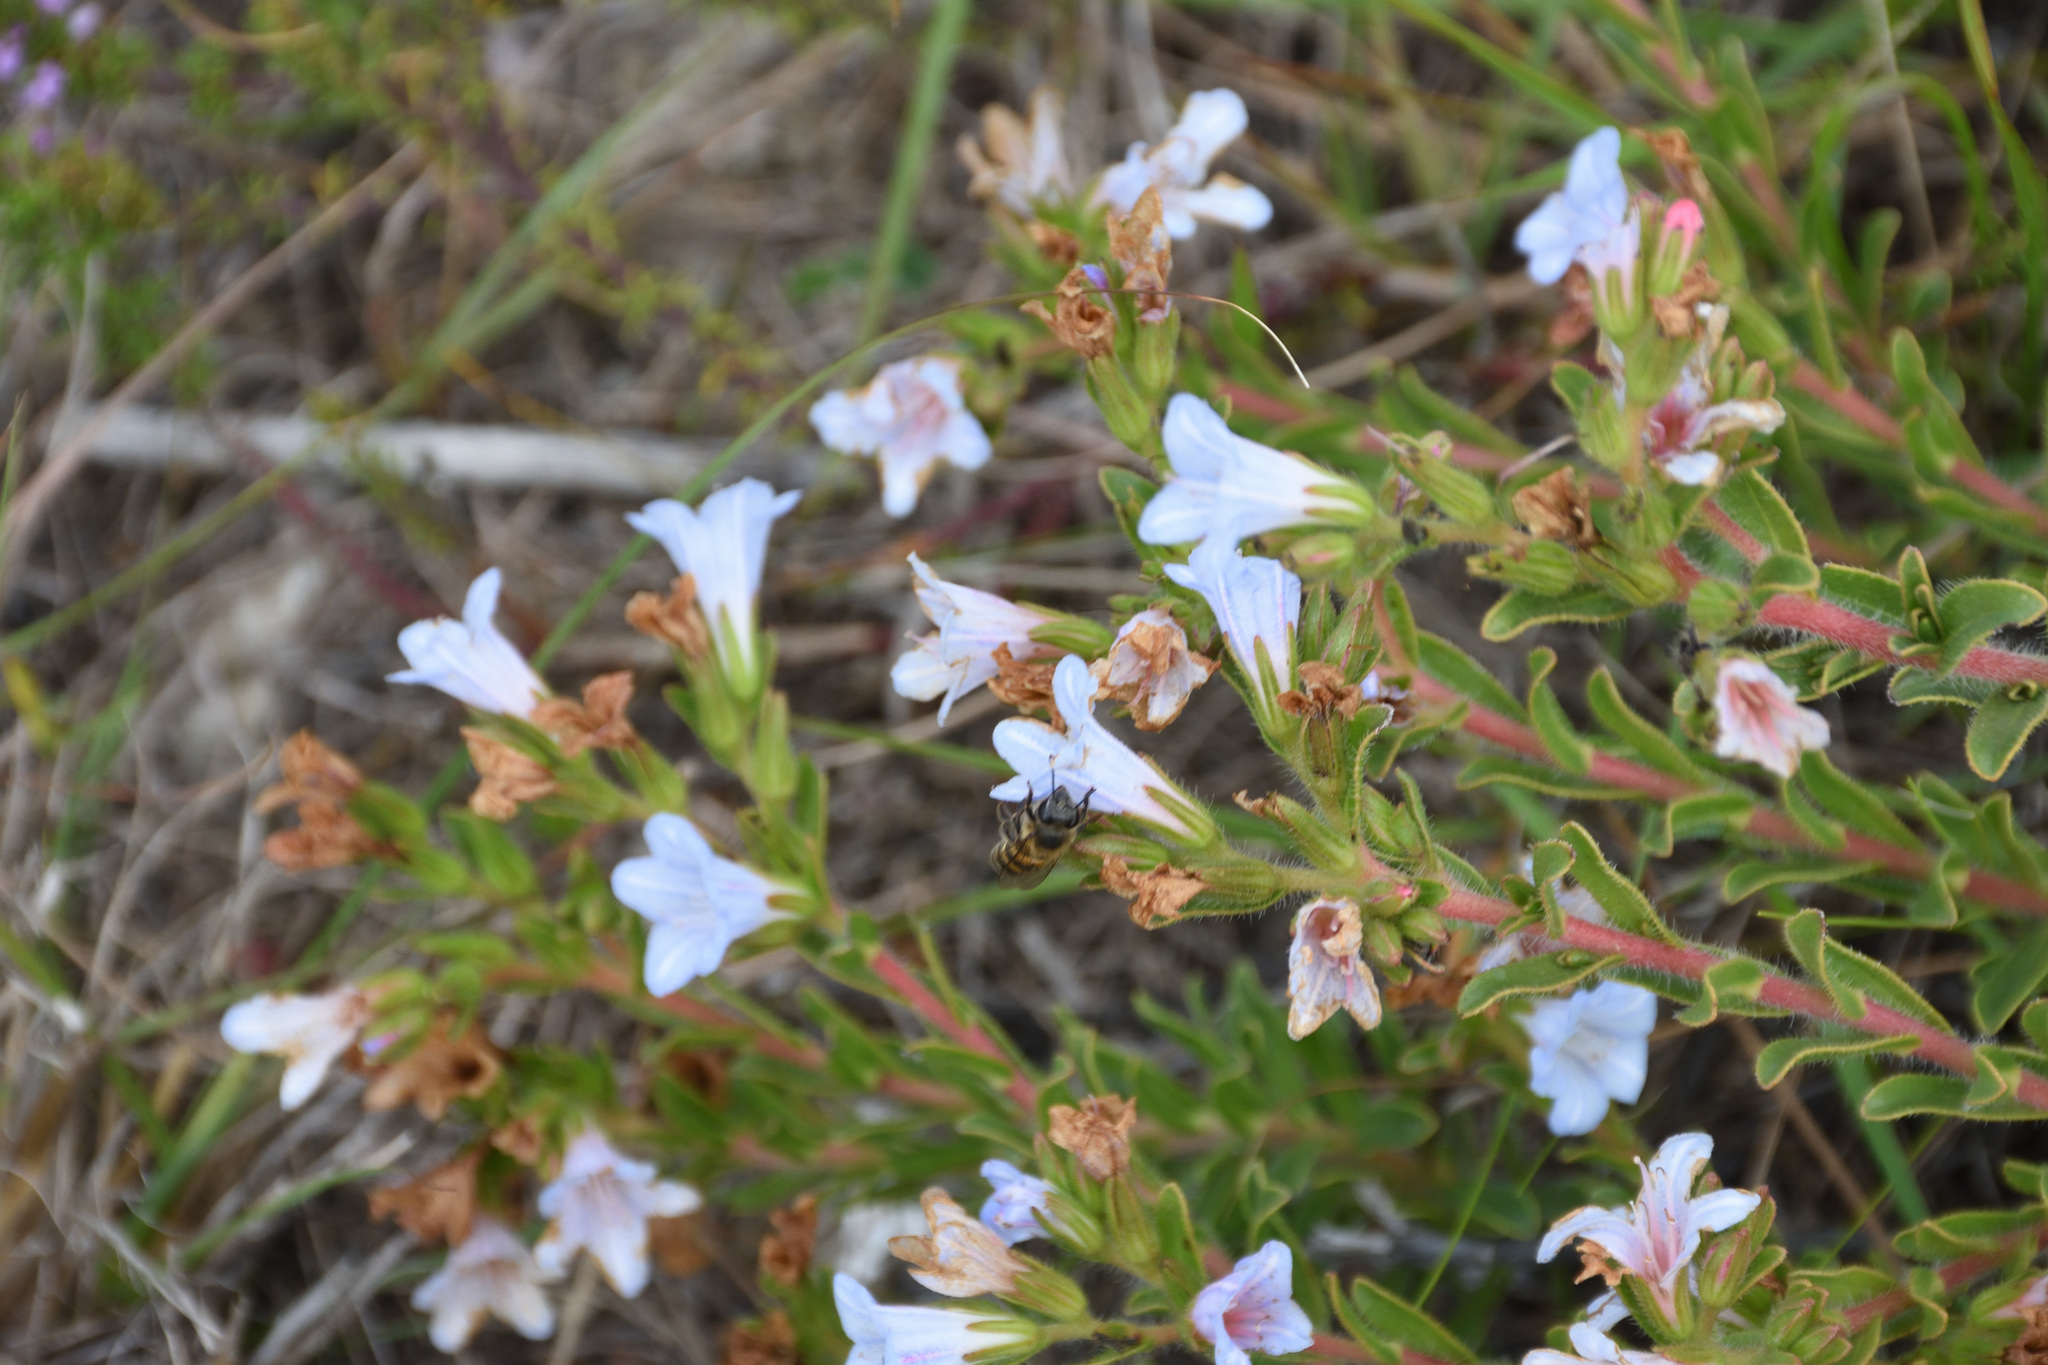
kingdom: Plantae
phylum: Tracheophyta
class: Magnoliopsida
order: Boraginales
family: Boraginaceae
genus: Lobostemon
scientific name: Lobostemon trigonus
